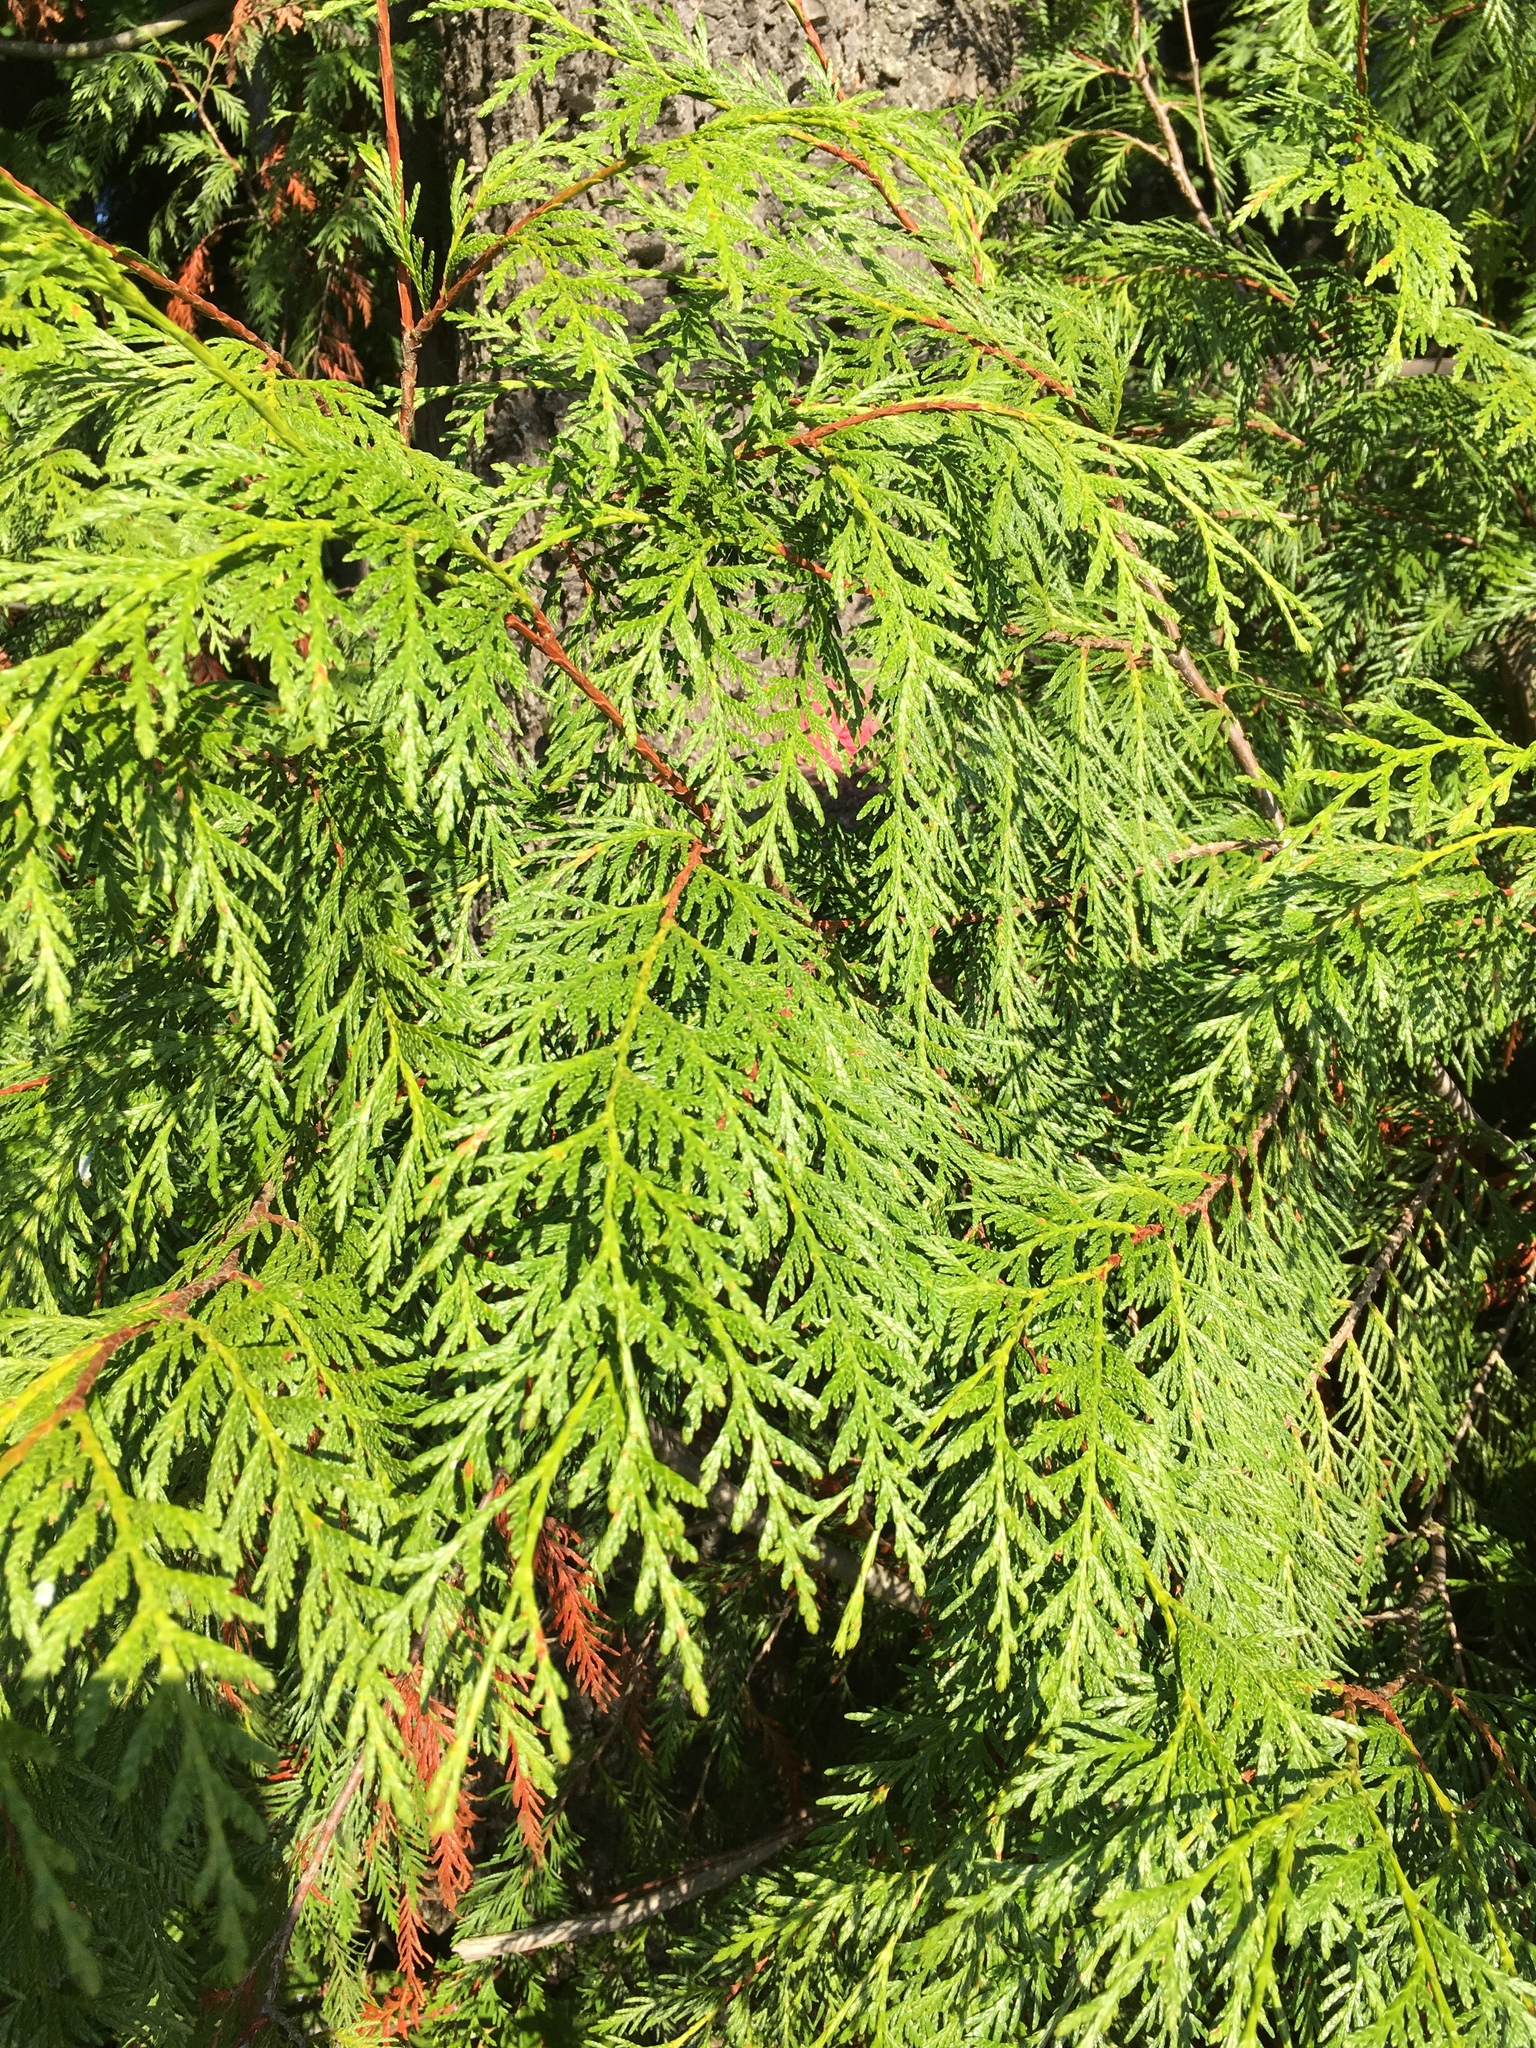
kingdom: Plantae
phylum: Tracheophyta
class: Pinopsida
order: Pinales
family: Cupressaceae
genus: Thuja
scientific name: Thuja plicata
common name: Western red-cedar
